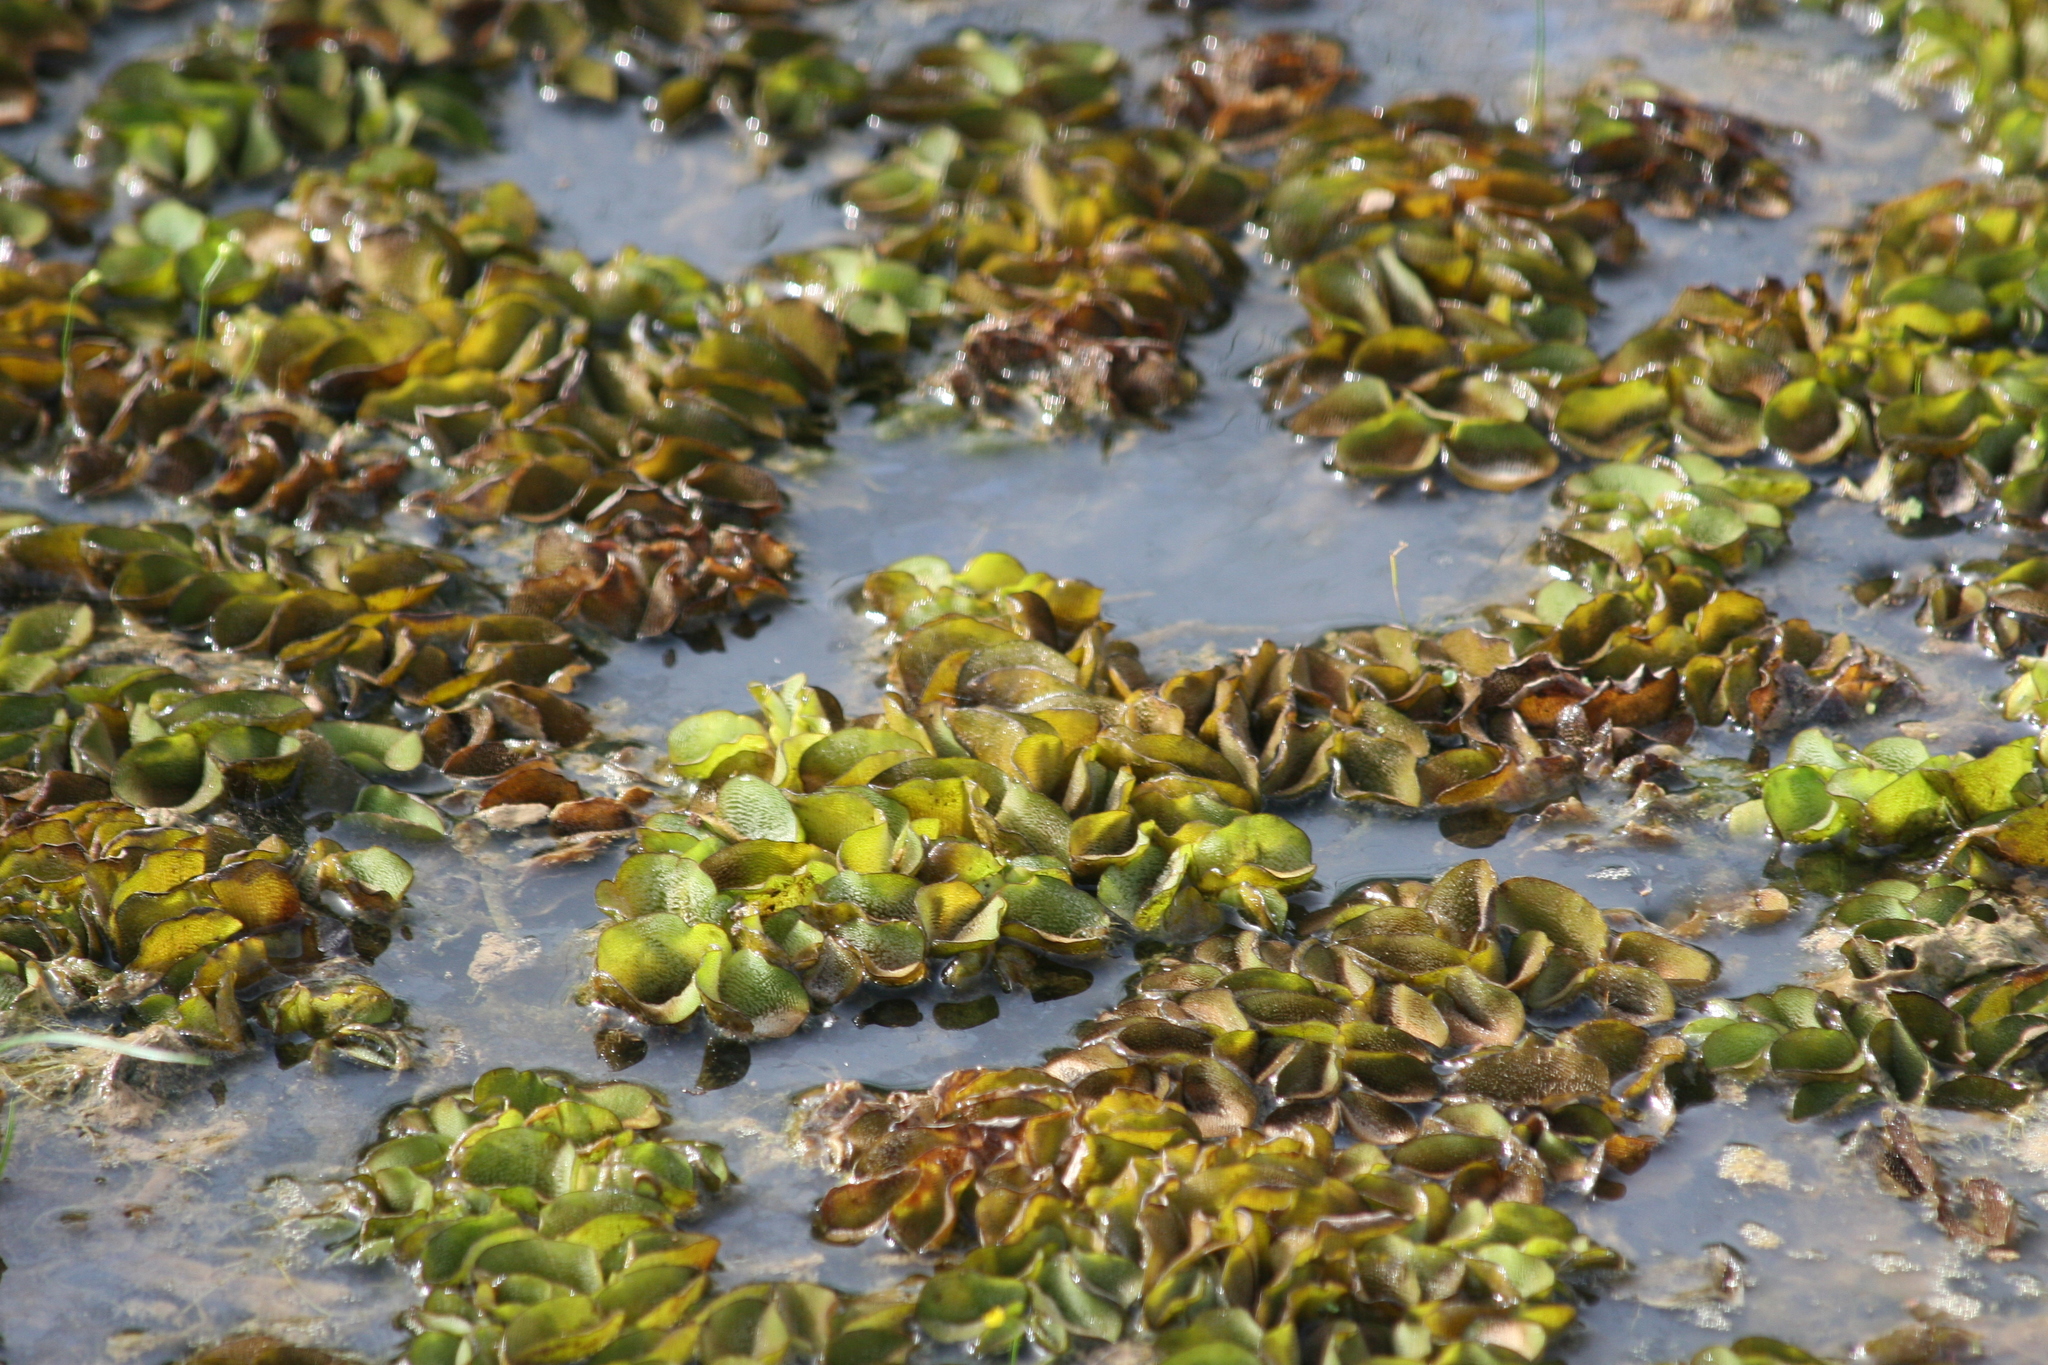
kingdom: Plantae
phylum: Tracheophyta
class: Polypodiopsida
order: Salviniales
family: Salviniaceae
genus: Salvinia
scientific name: Salvinia molesta
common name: Kariba weed
